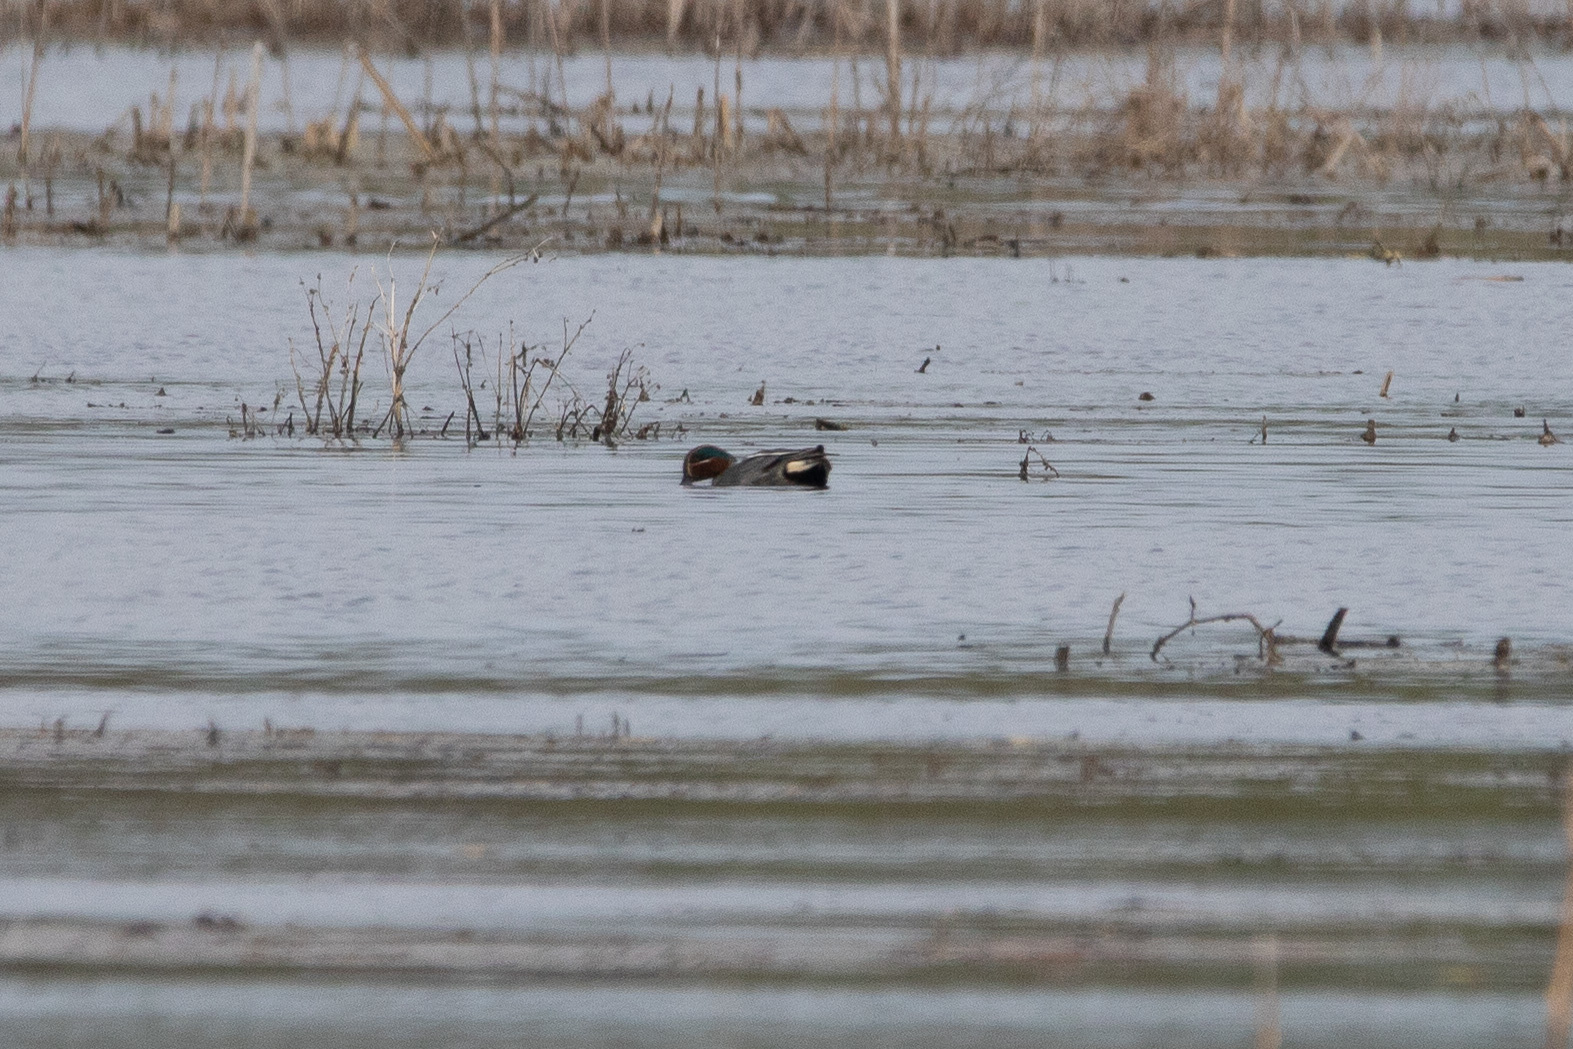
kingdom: Animalia
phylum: Chordata
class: Aves
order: Anseriformes
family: Anatidae
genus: Anas
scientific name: Anas crecca
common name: Eurasian teal
